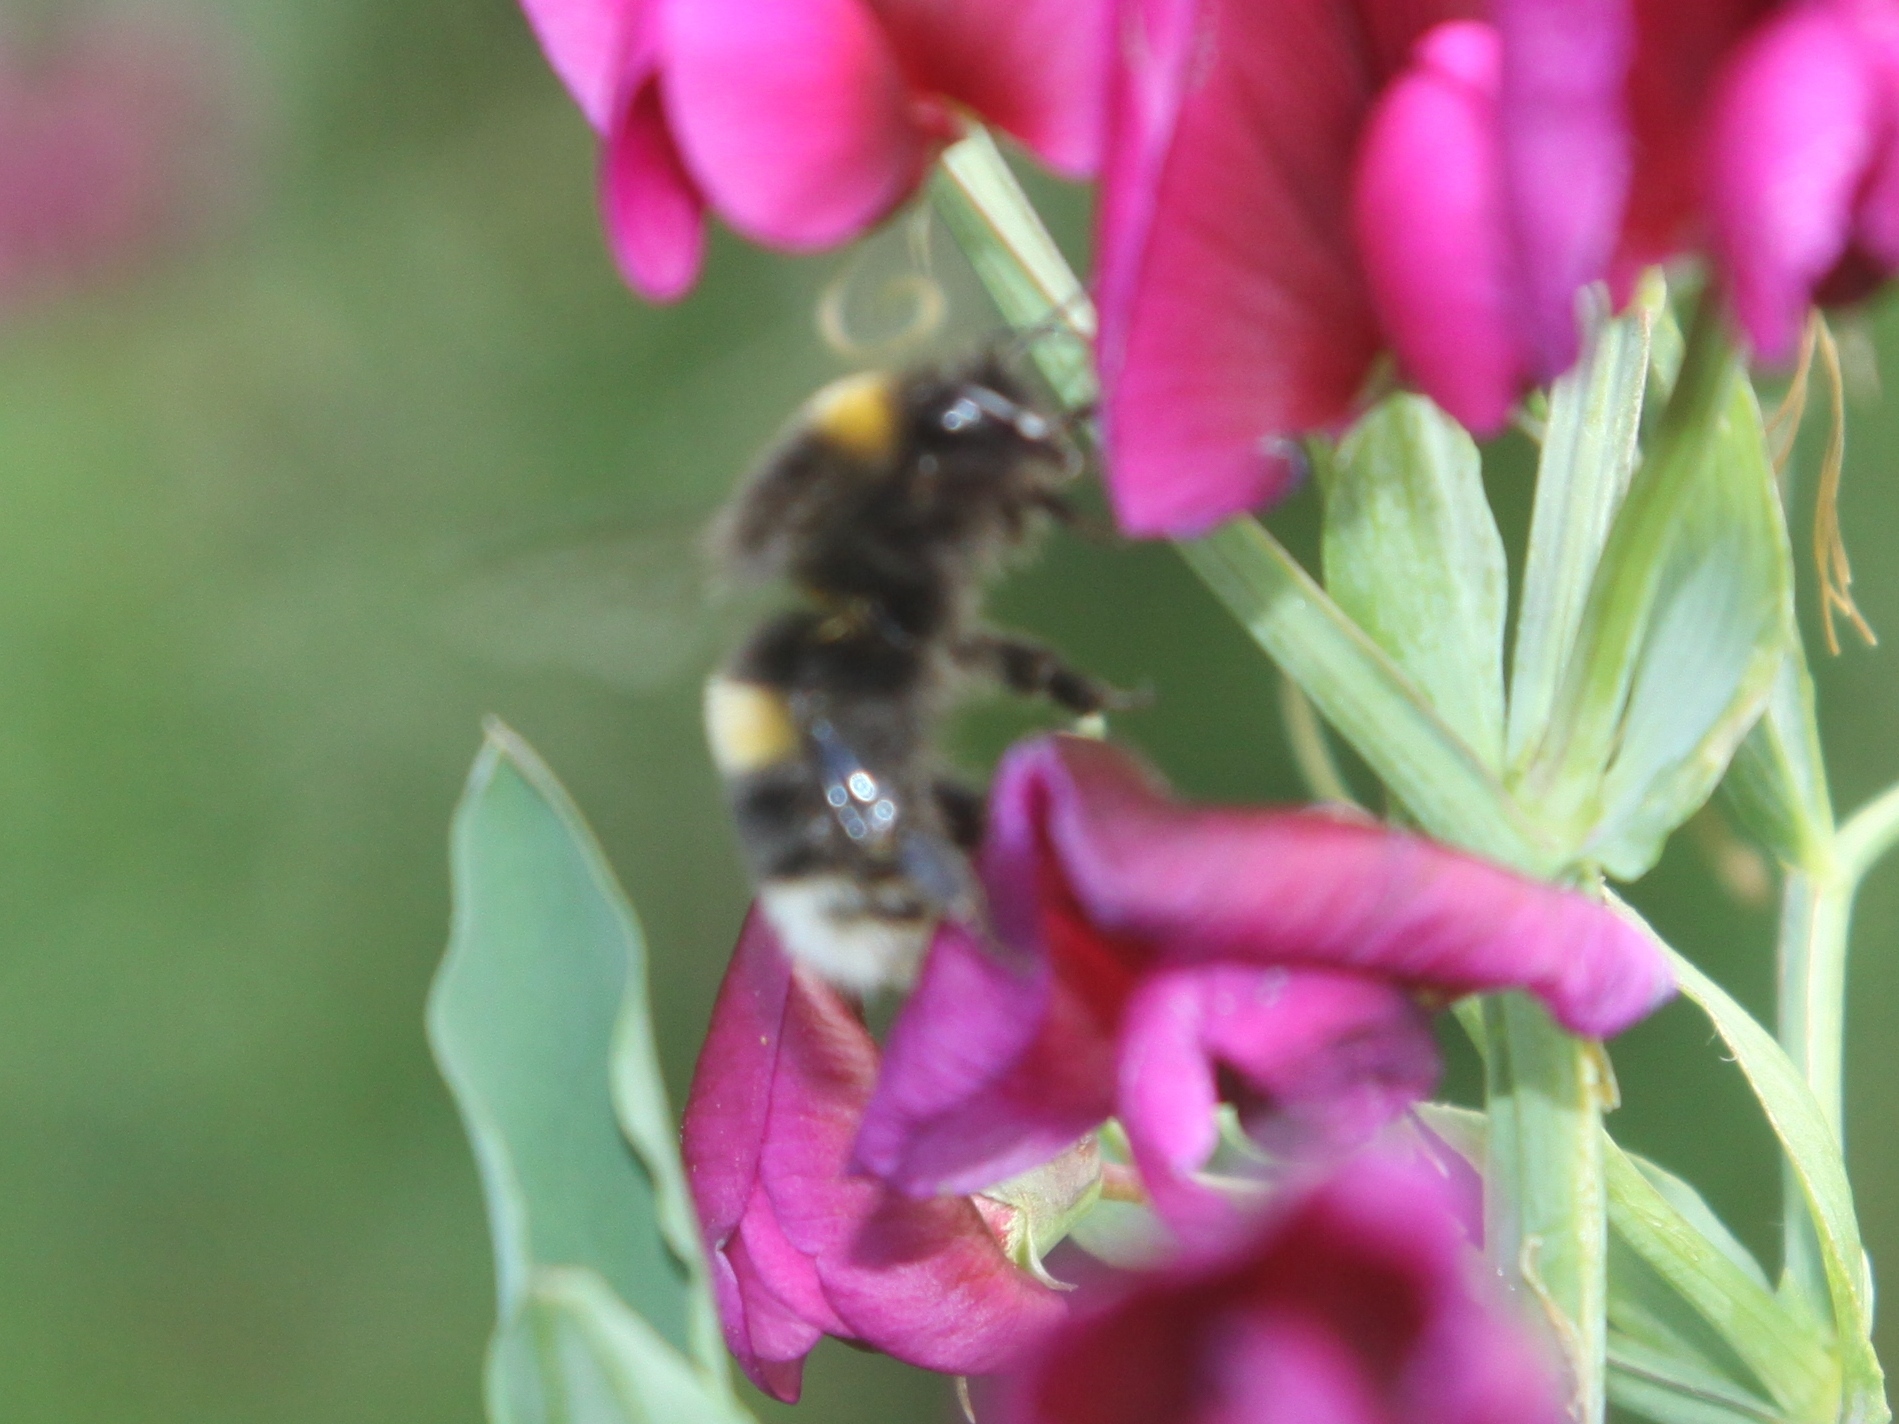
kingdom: Animalia
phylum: Arthropoda
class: Insecta
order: Hymenoptera
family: Apidae
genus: Bombus
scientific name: Bombus terrestris
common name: Buff-tailed bumblebee
